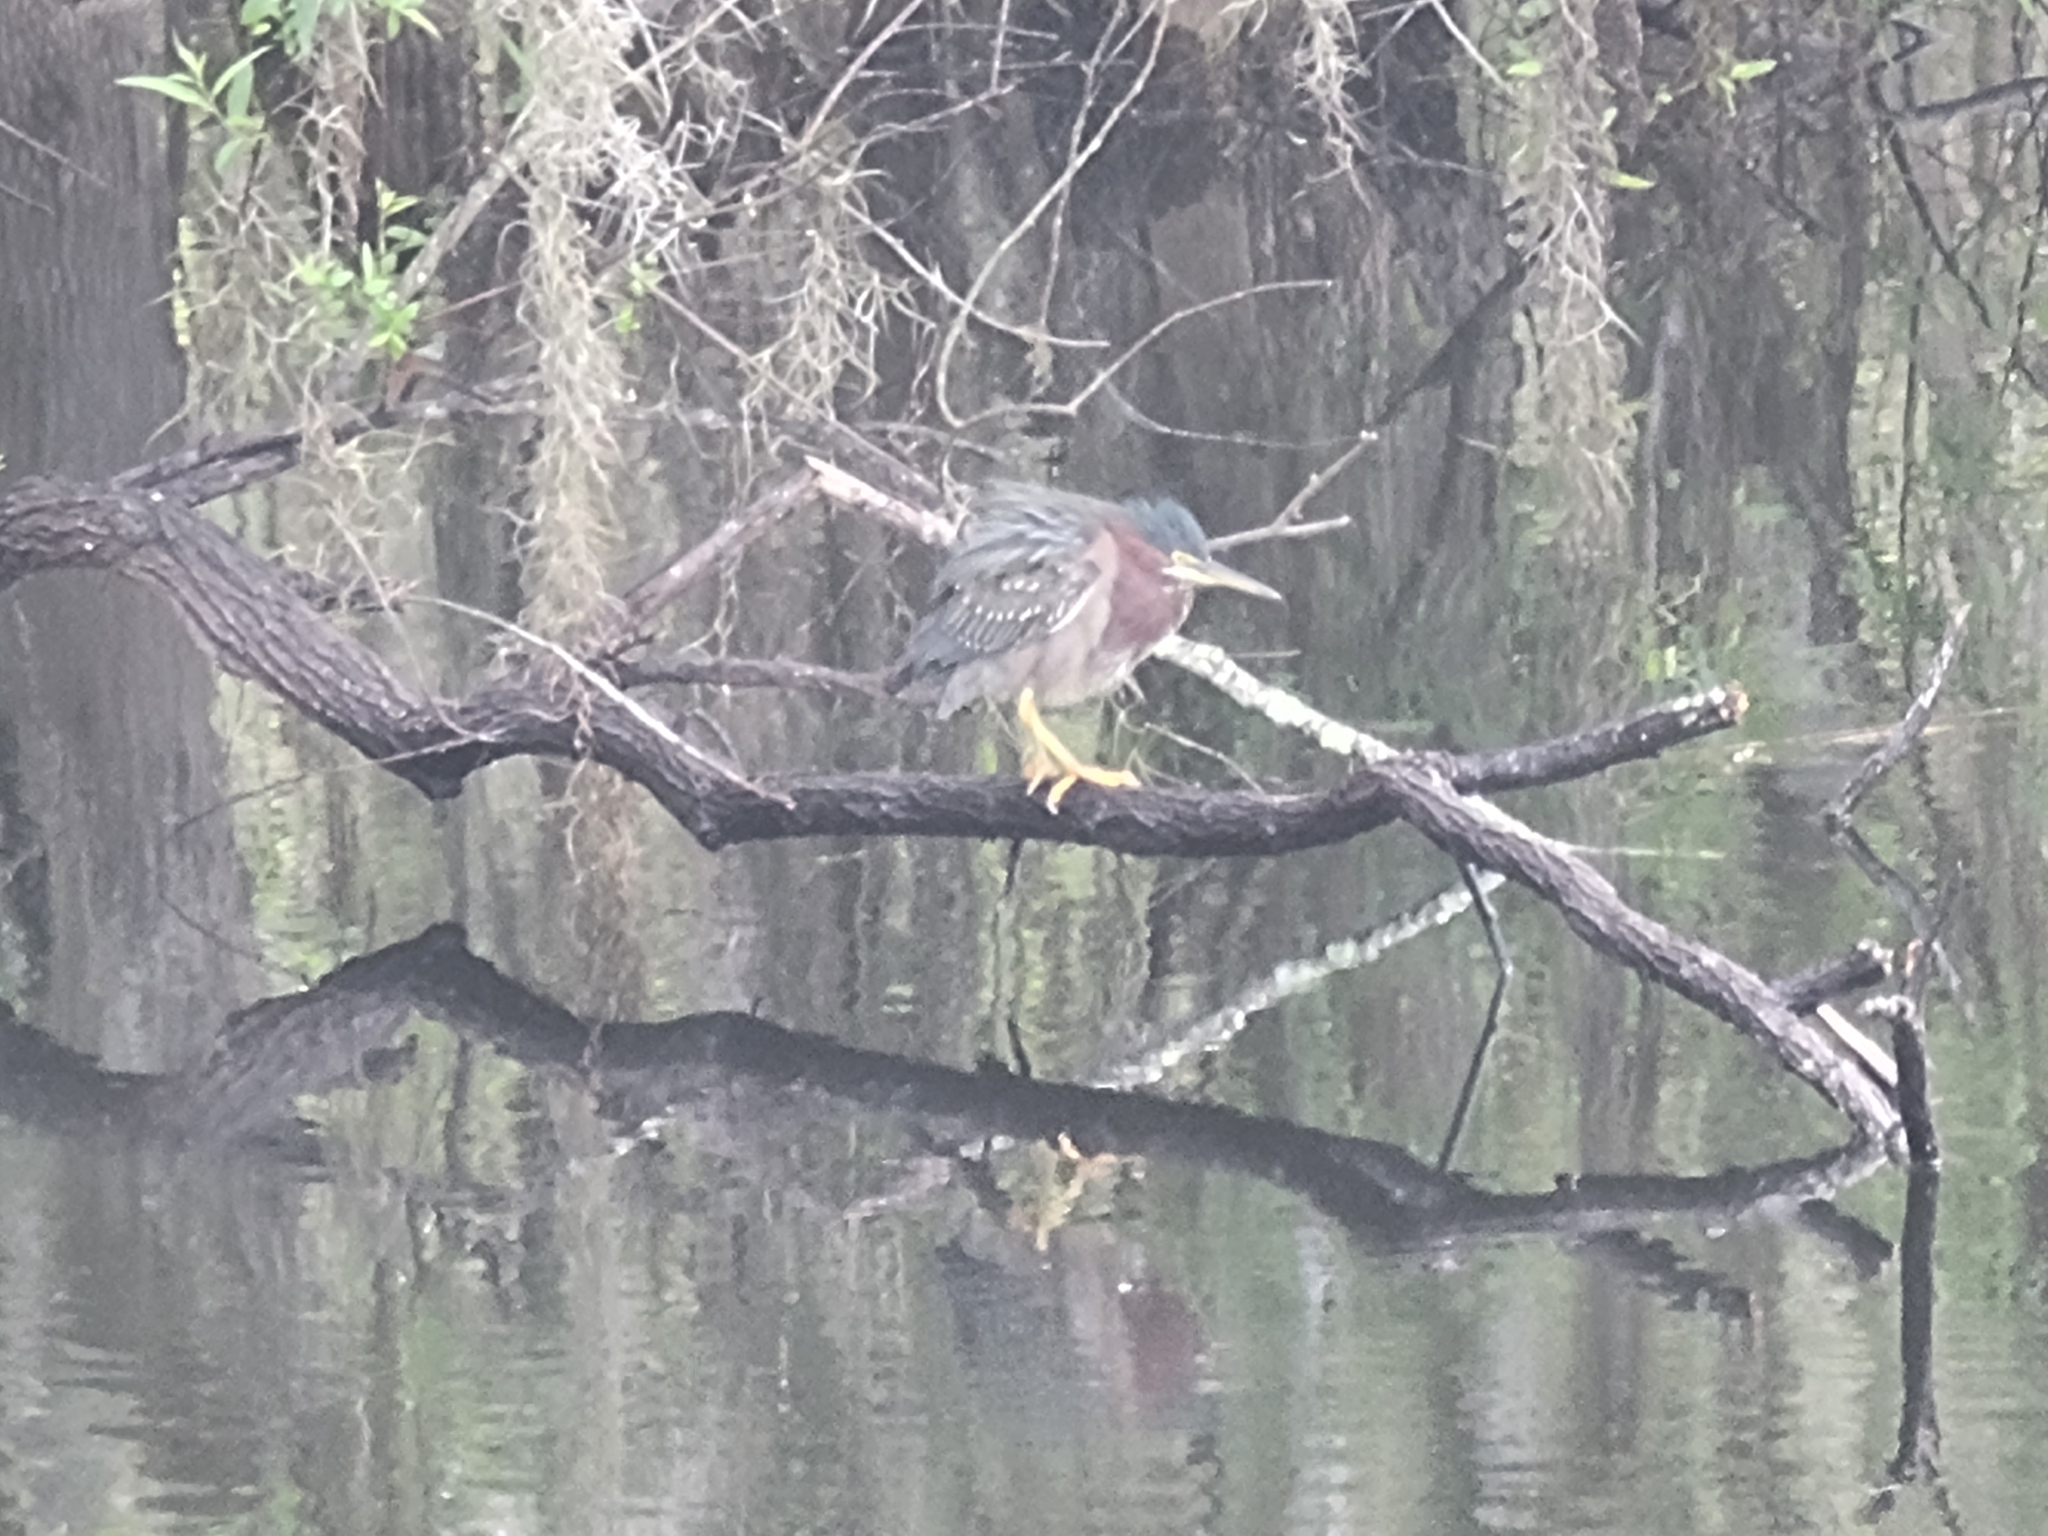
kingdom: Animalia
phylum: Chordata
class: Aves
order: Pelecaniformes
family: Ardeidae
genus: Butorides
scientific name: Butorides virescens
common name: Green heron
